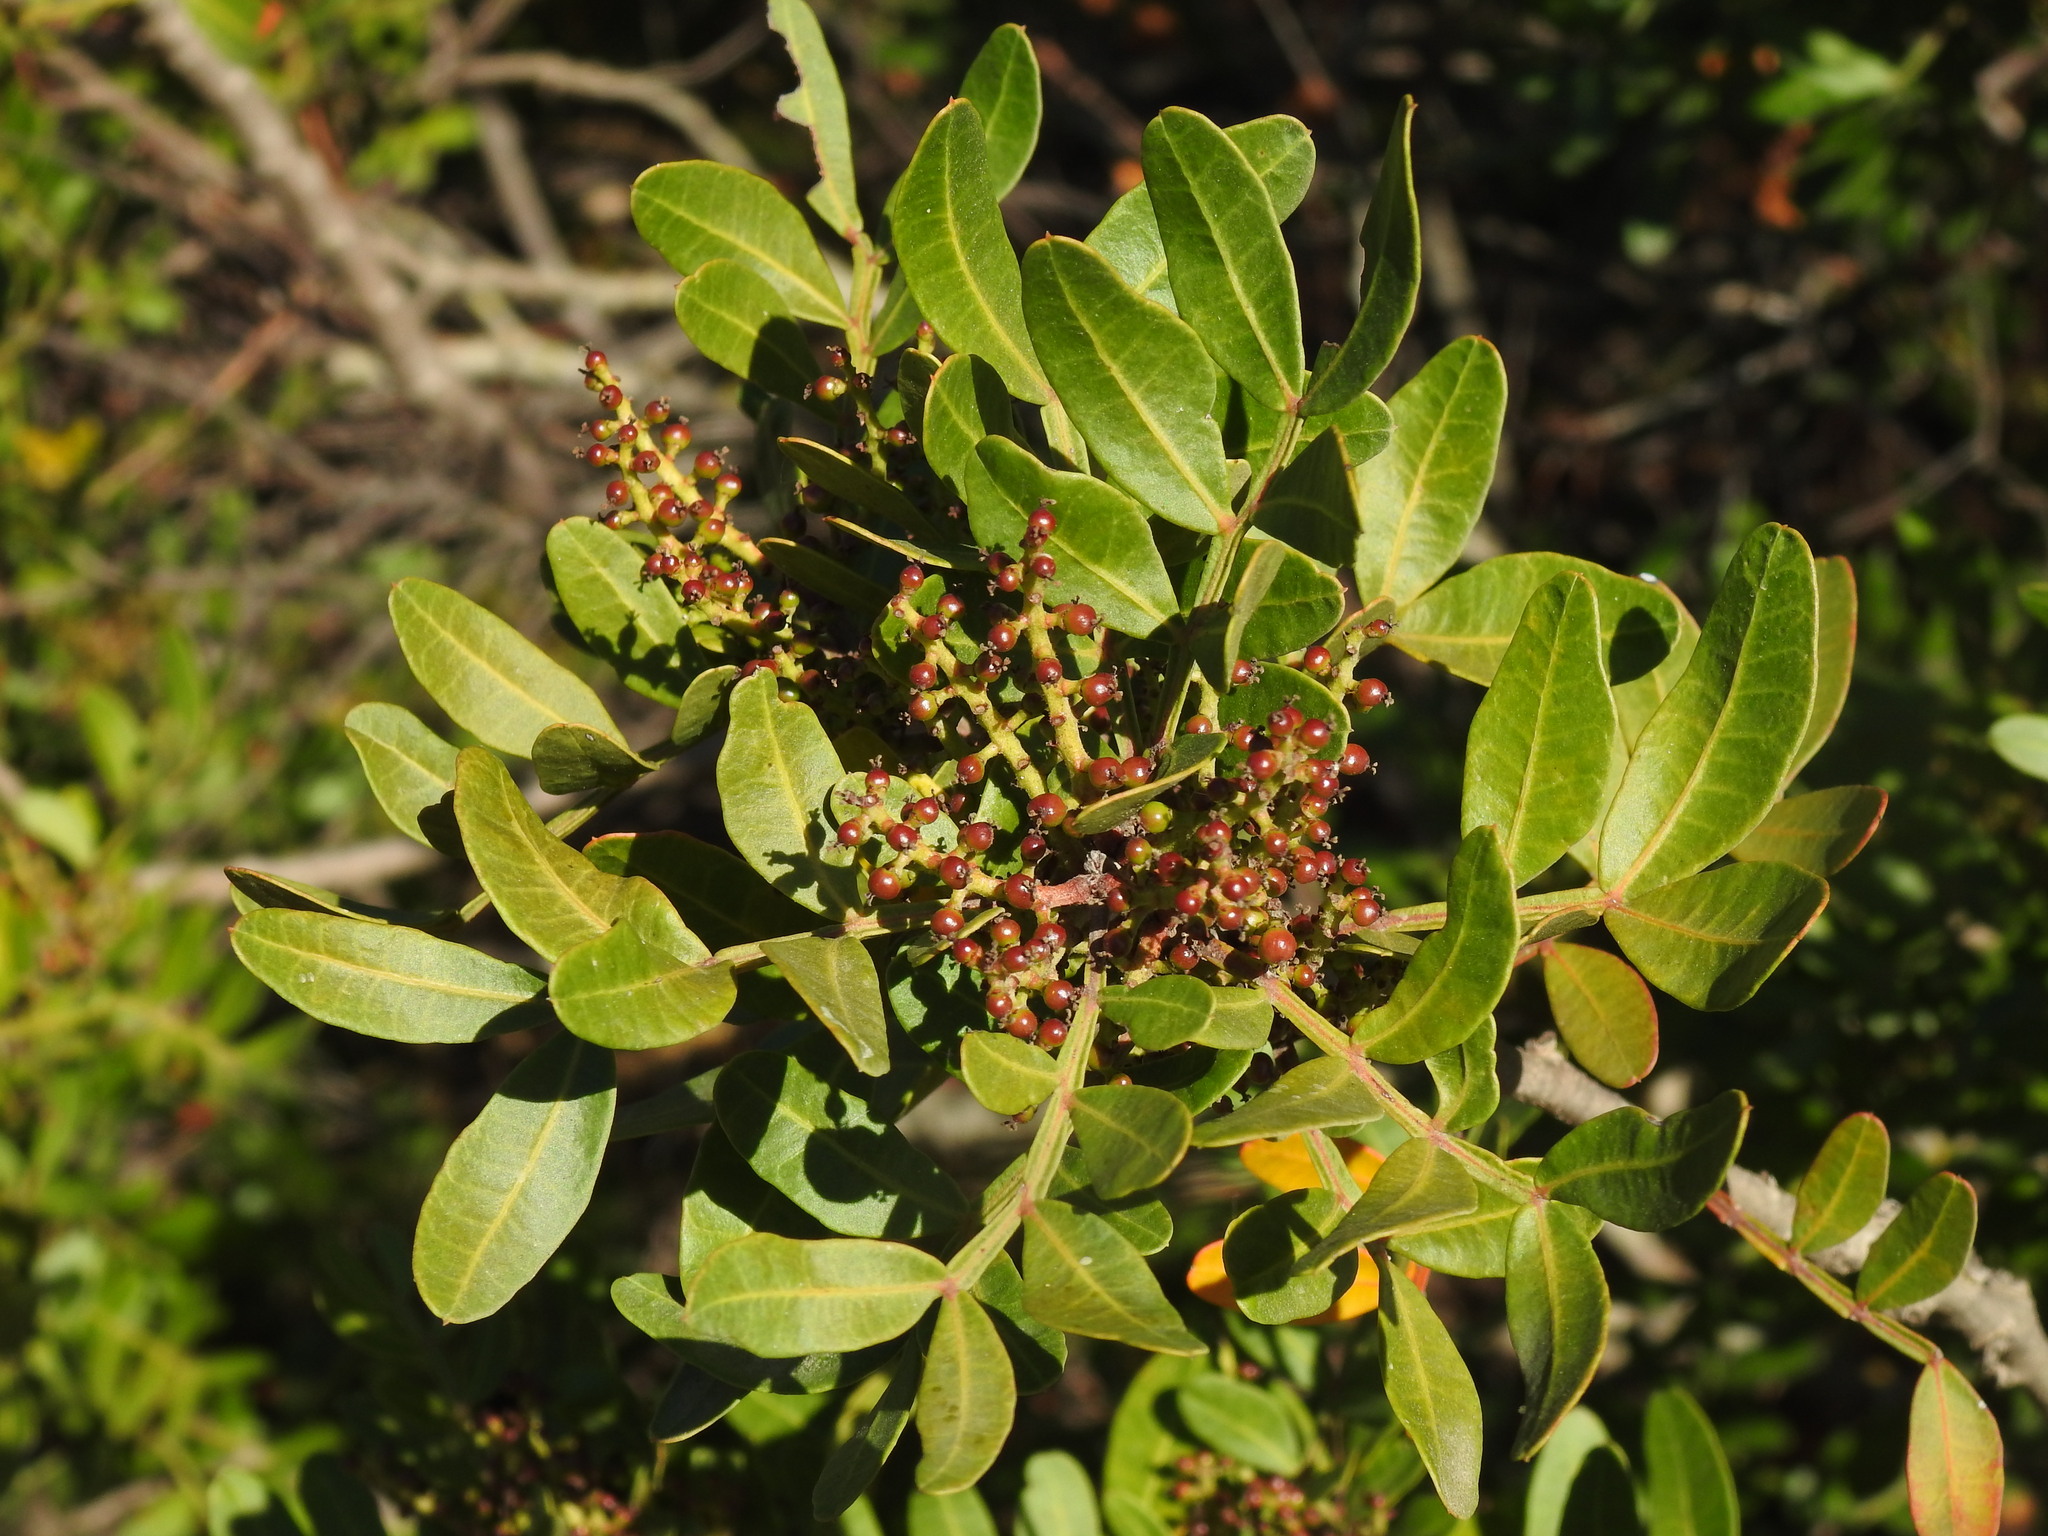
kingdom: Plantae
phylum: Tracheophyta
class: Magnoliopsida
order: Sapindales
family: Anacardiaceae
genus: Pistacia
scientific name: Pistacia lentiscus
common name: Lentisk
